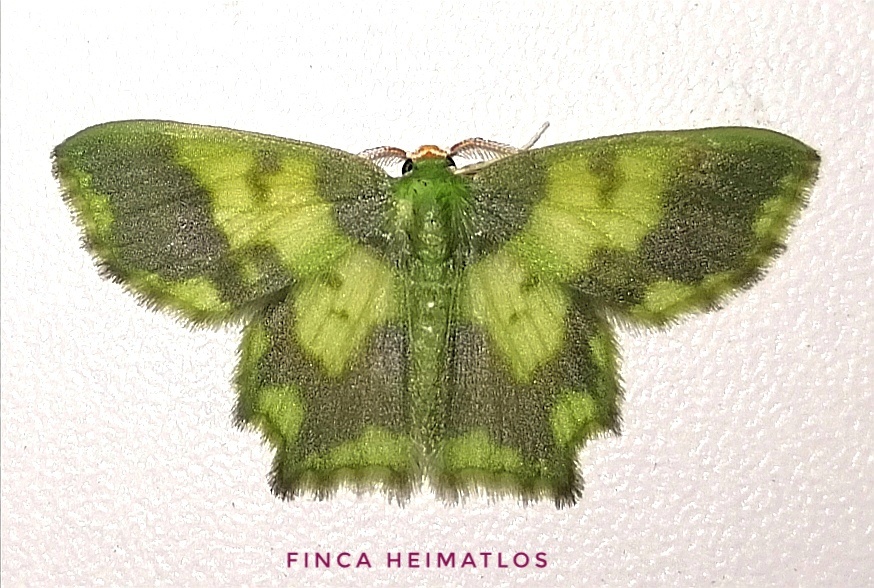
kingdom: Animalia
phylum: Arthropoda
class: Insecta
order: Lepidoptera
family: Geometridae
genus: Cathydata
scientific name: Cathydata batina
